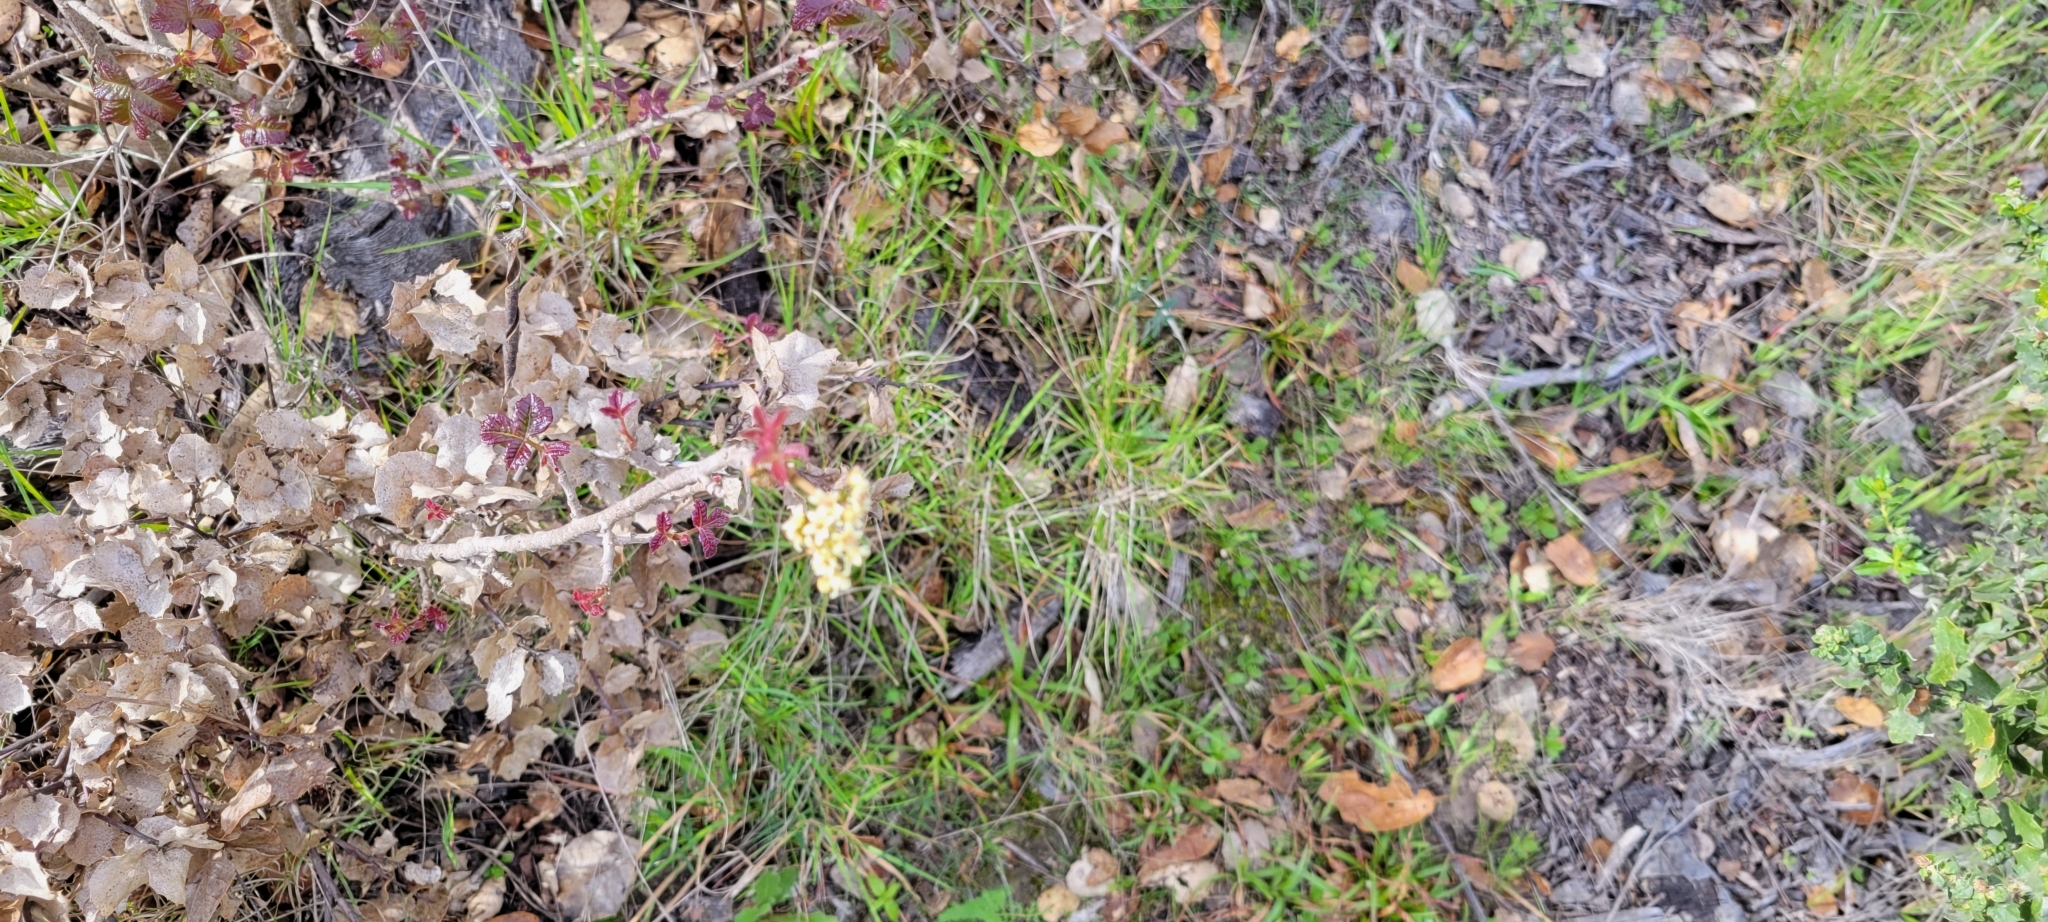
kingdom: Plantae
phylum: Tracheophyta
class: Magnoliopsida
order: Sapindales
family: Anacardiaceae
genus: Toxicodendron
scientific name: Toxicodendron diversilobum
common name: Pacific poison-oak
